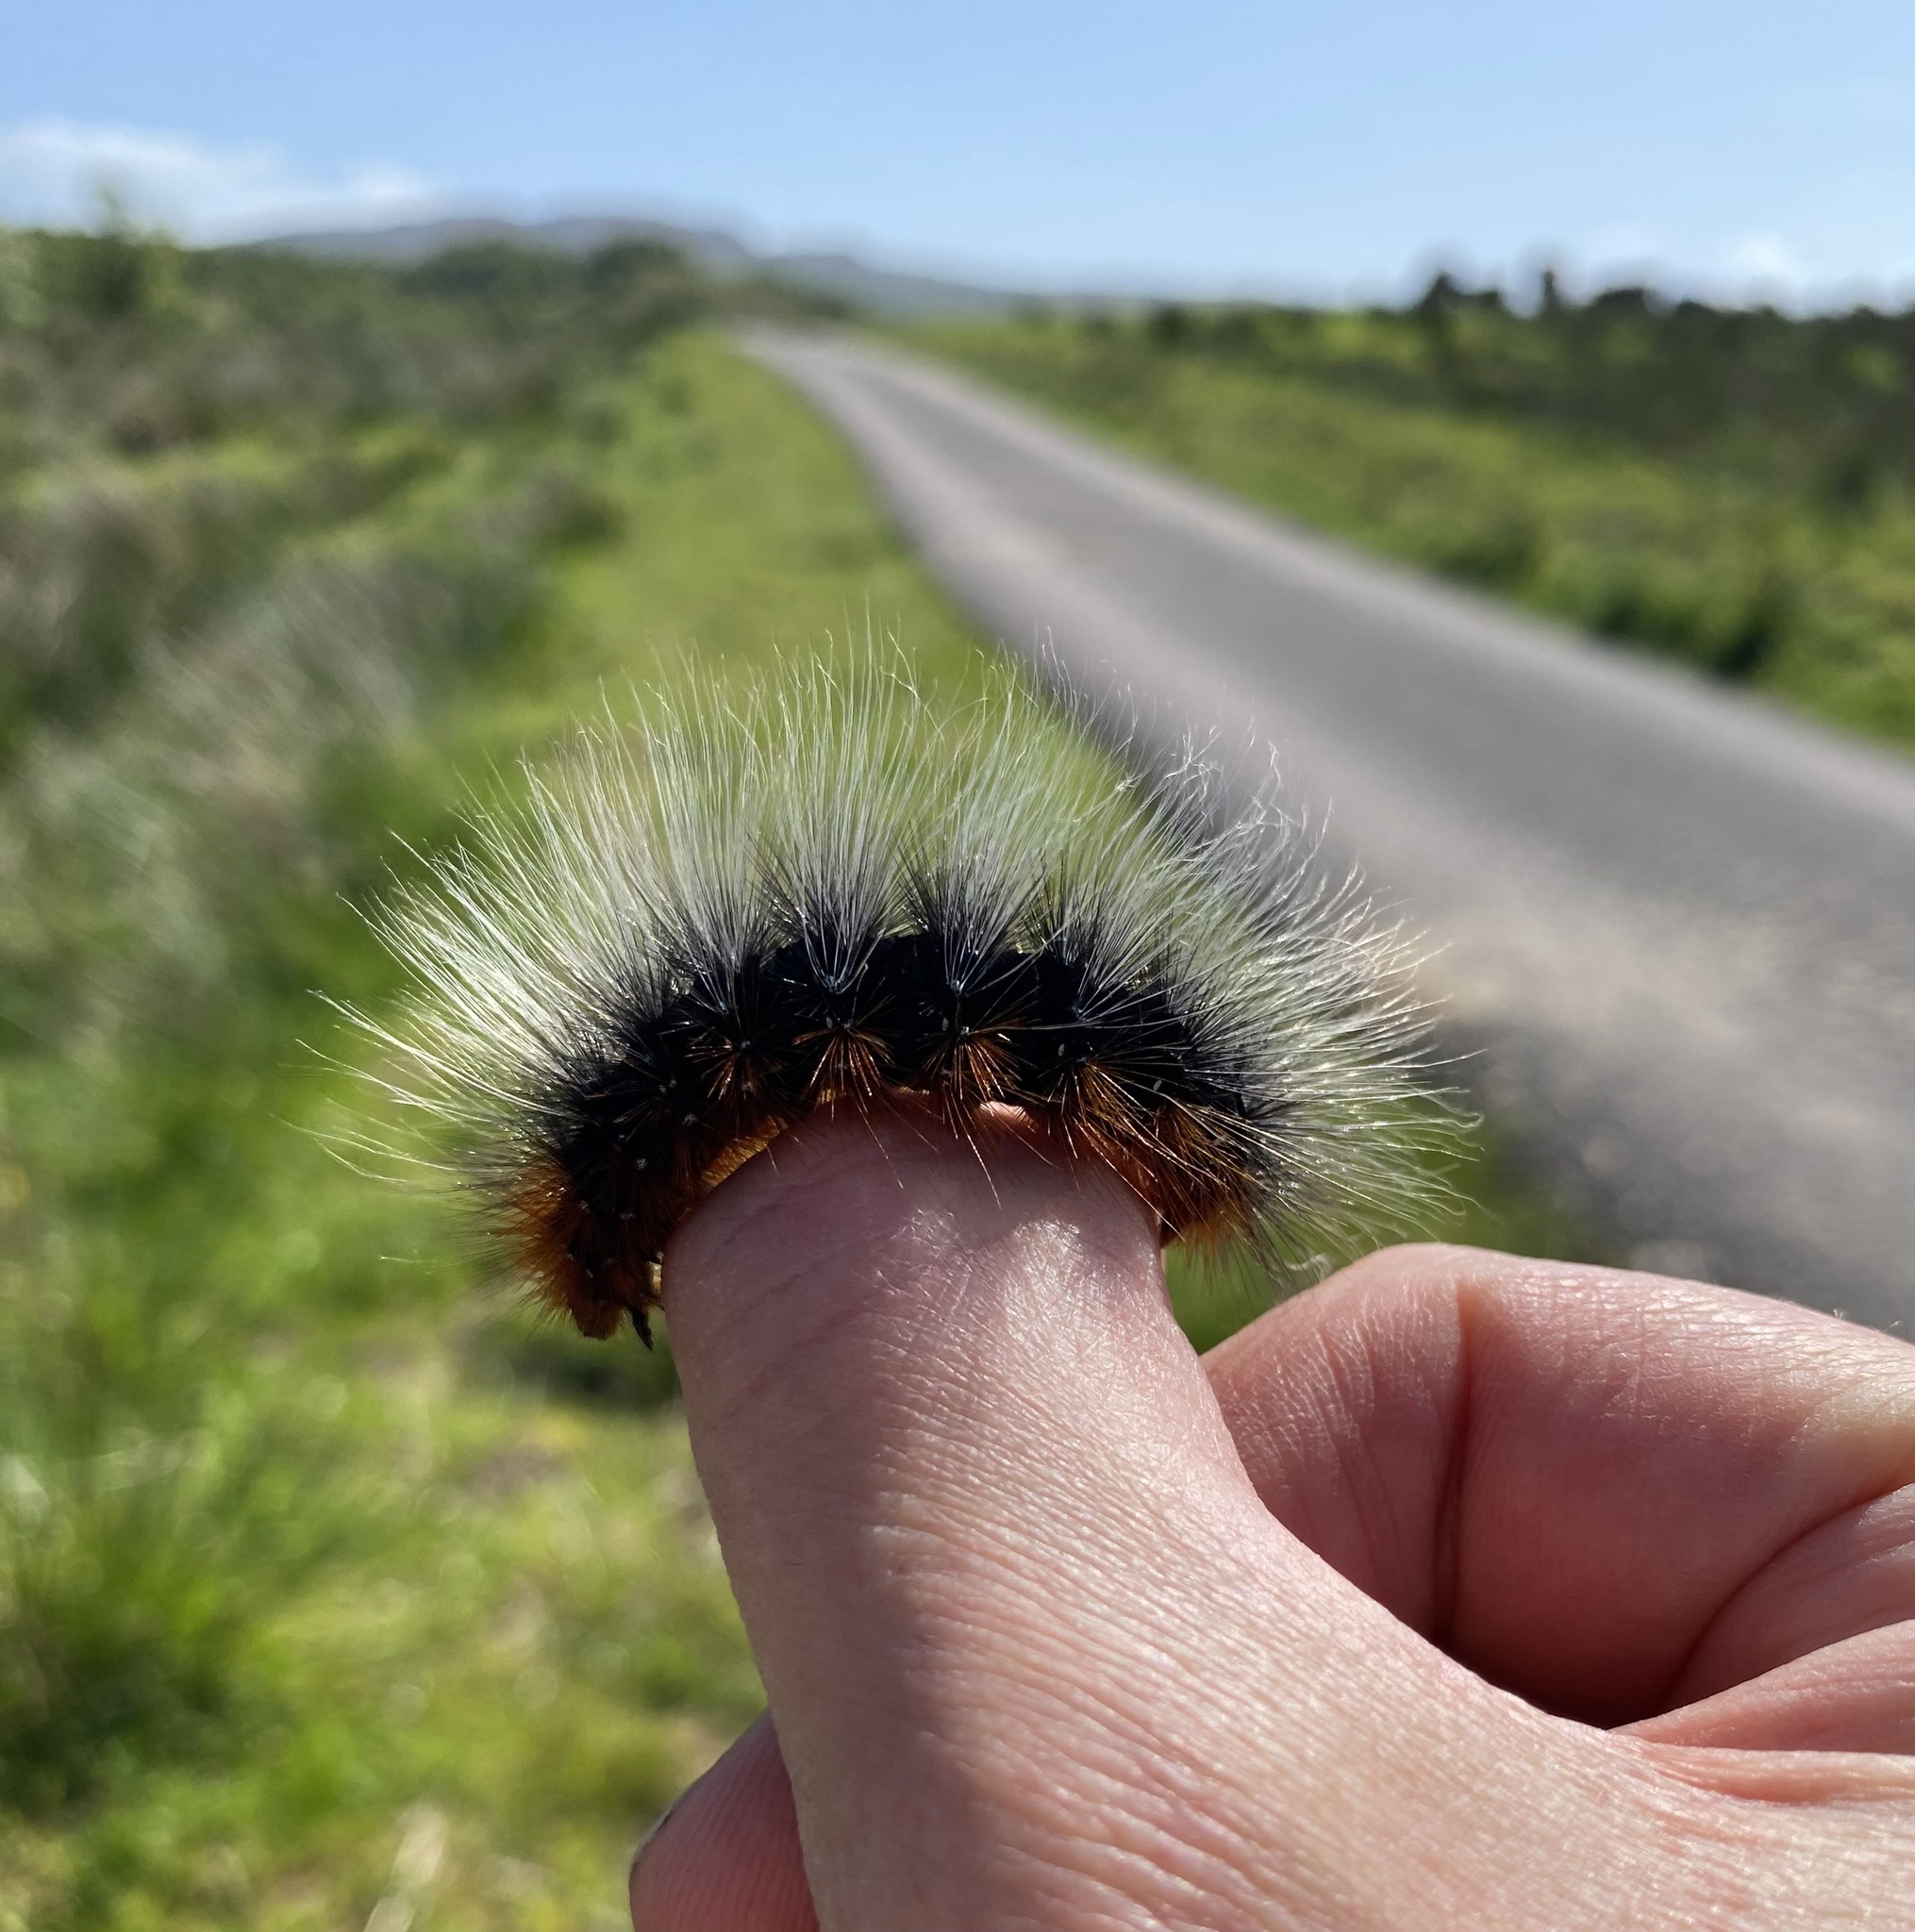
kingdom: Animalia
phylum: Arthropoda
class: Insecta
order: Lepidoptera
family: Erebidae
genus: Arctia
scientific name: Arctia caja
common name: Garden tiger
